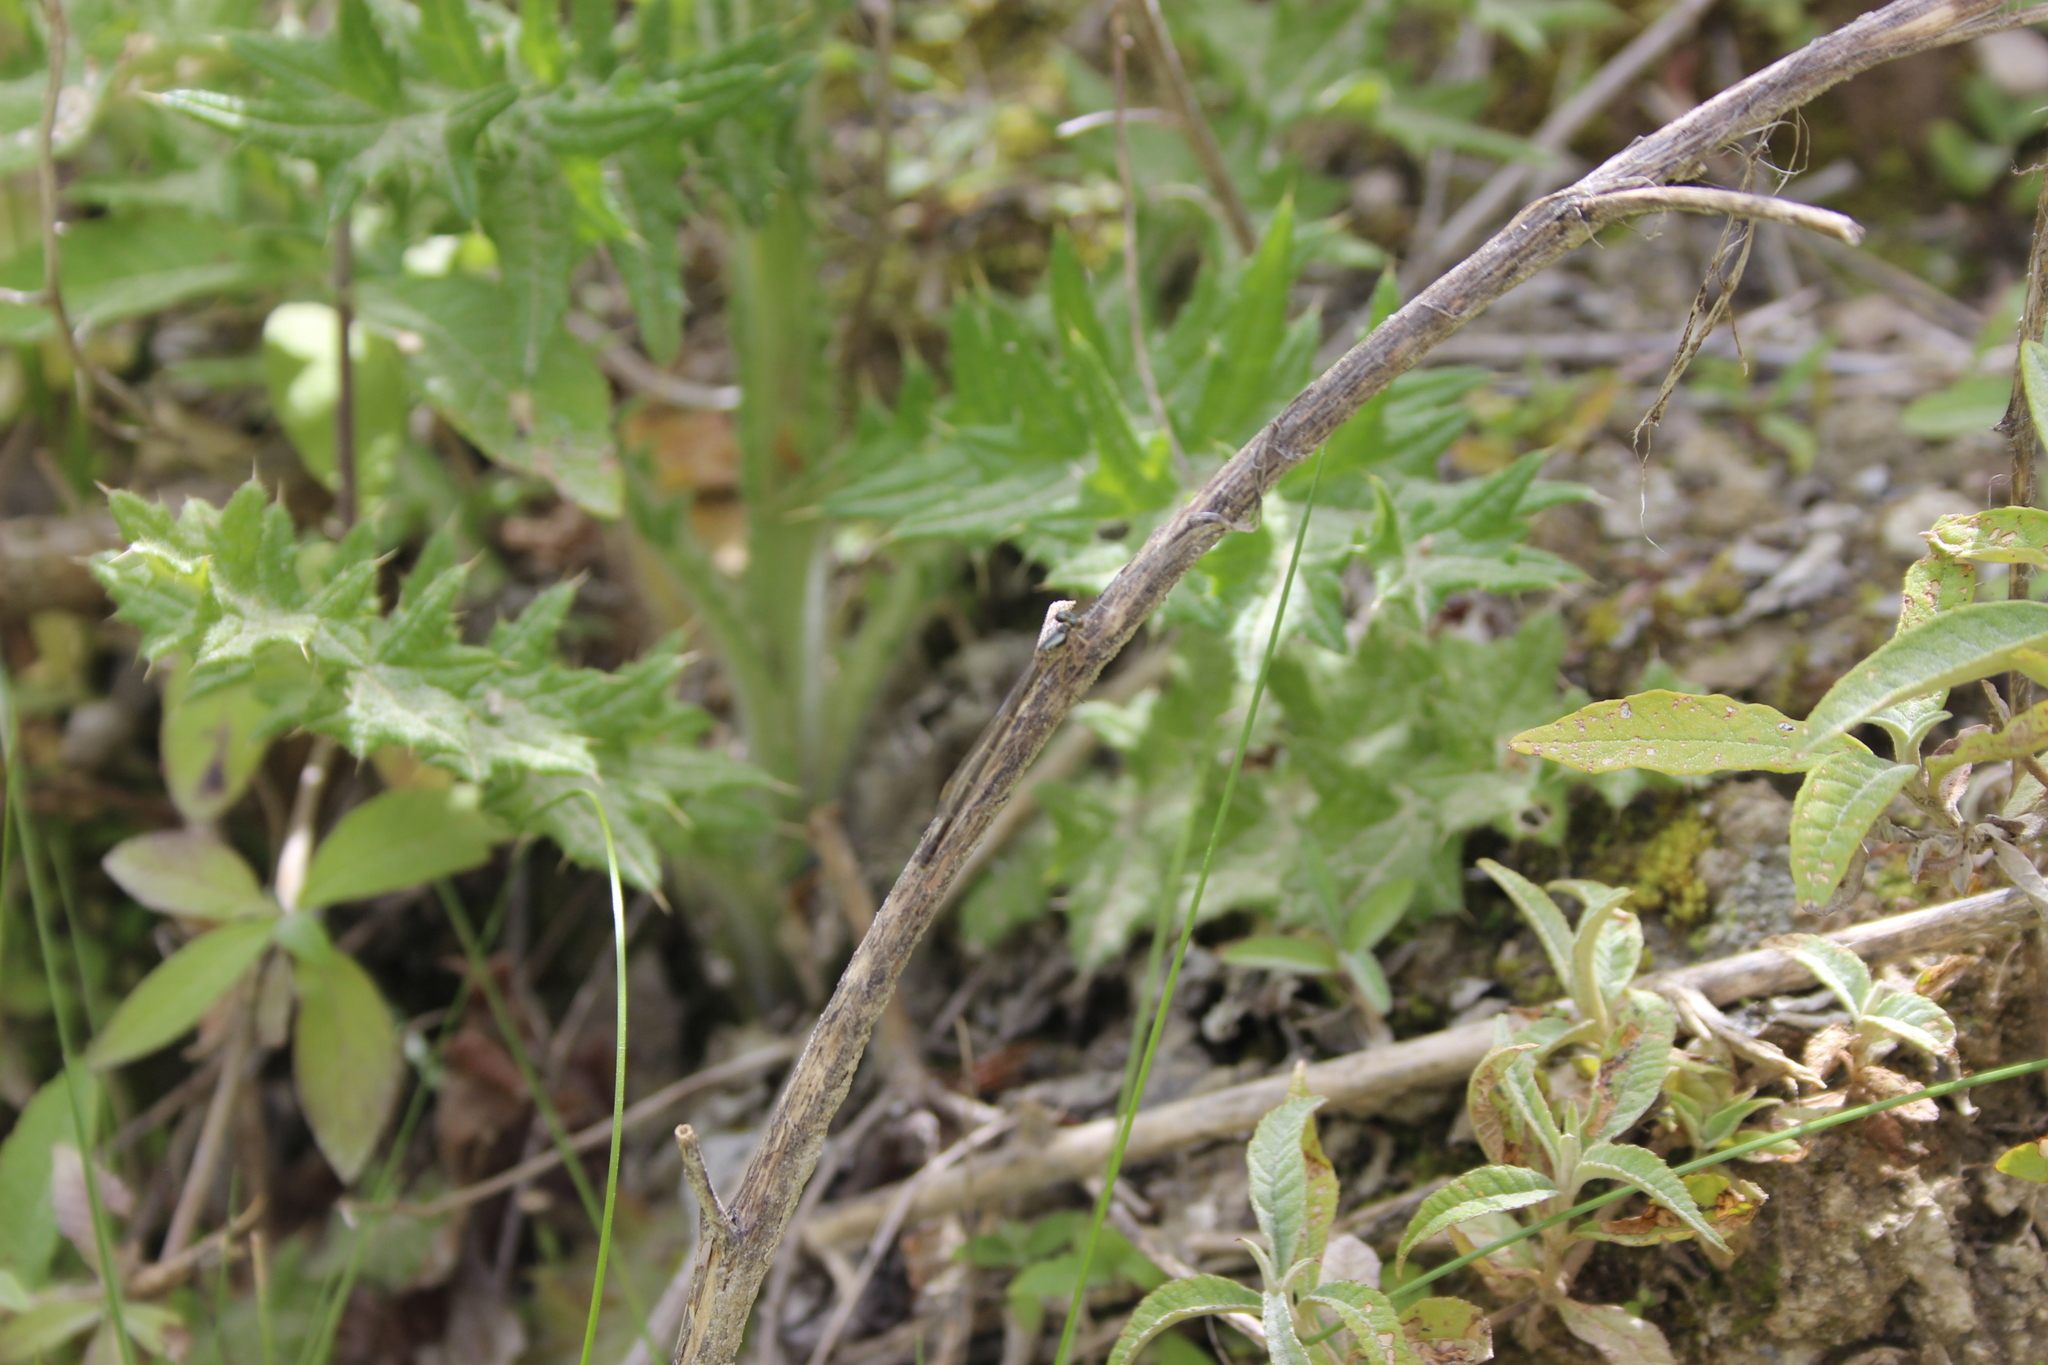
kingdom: Animalia
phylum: Arthropoda
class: Insecta
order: Odonata
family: Coenagrionidae
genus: Xanthocnemis
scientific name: Xanthocnemis zealandica
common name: Common redcoat damselfly
